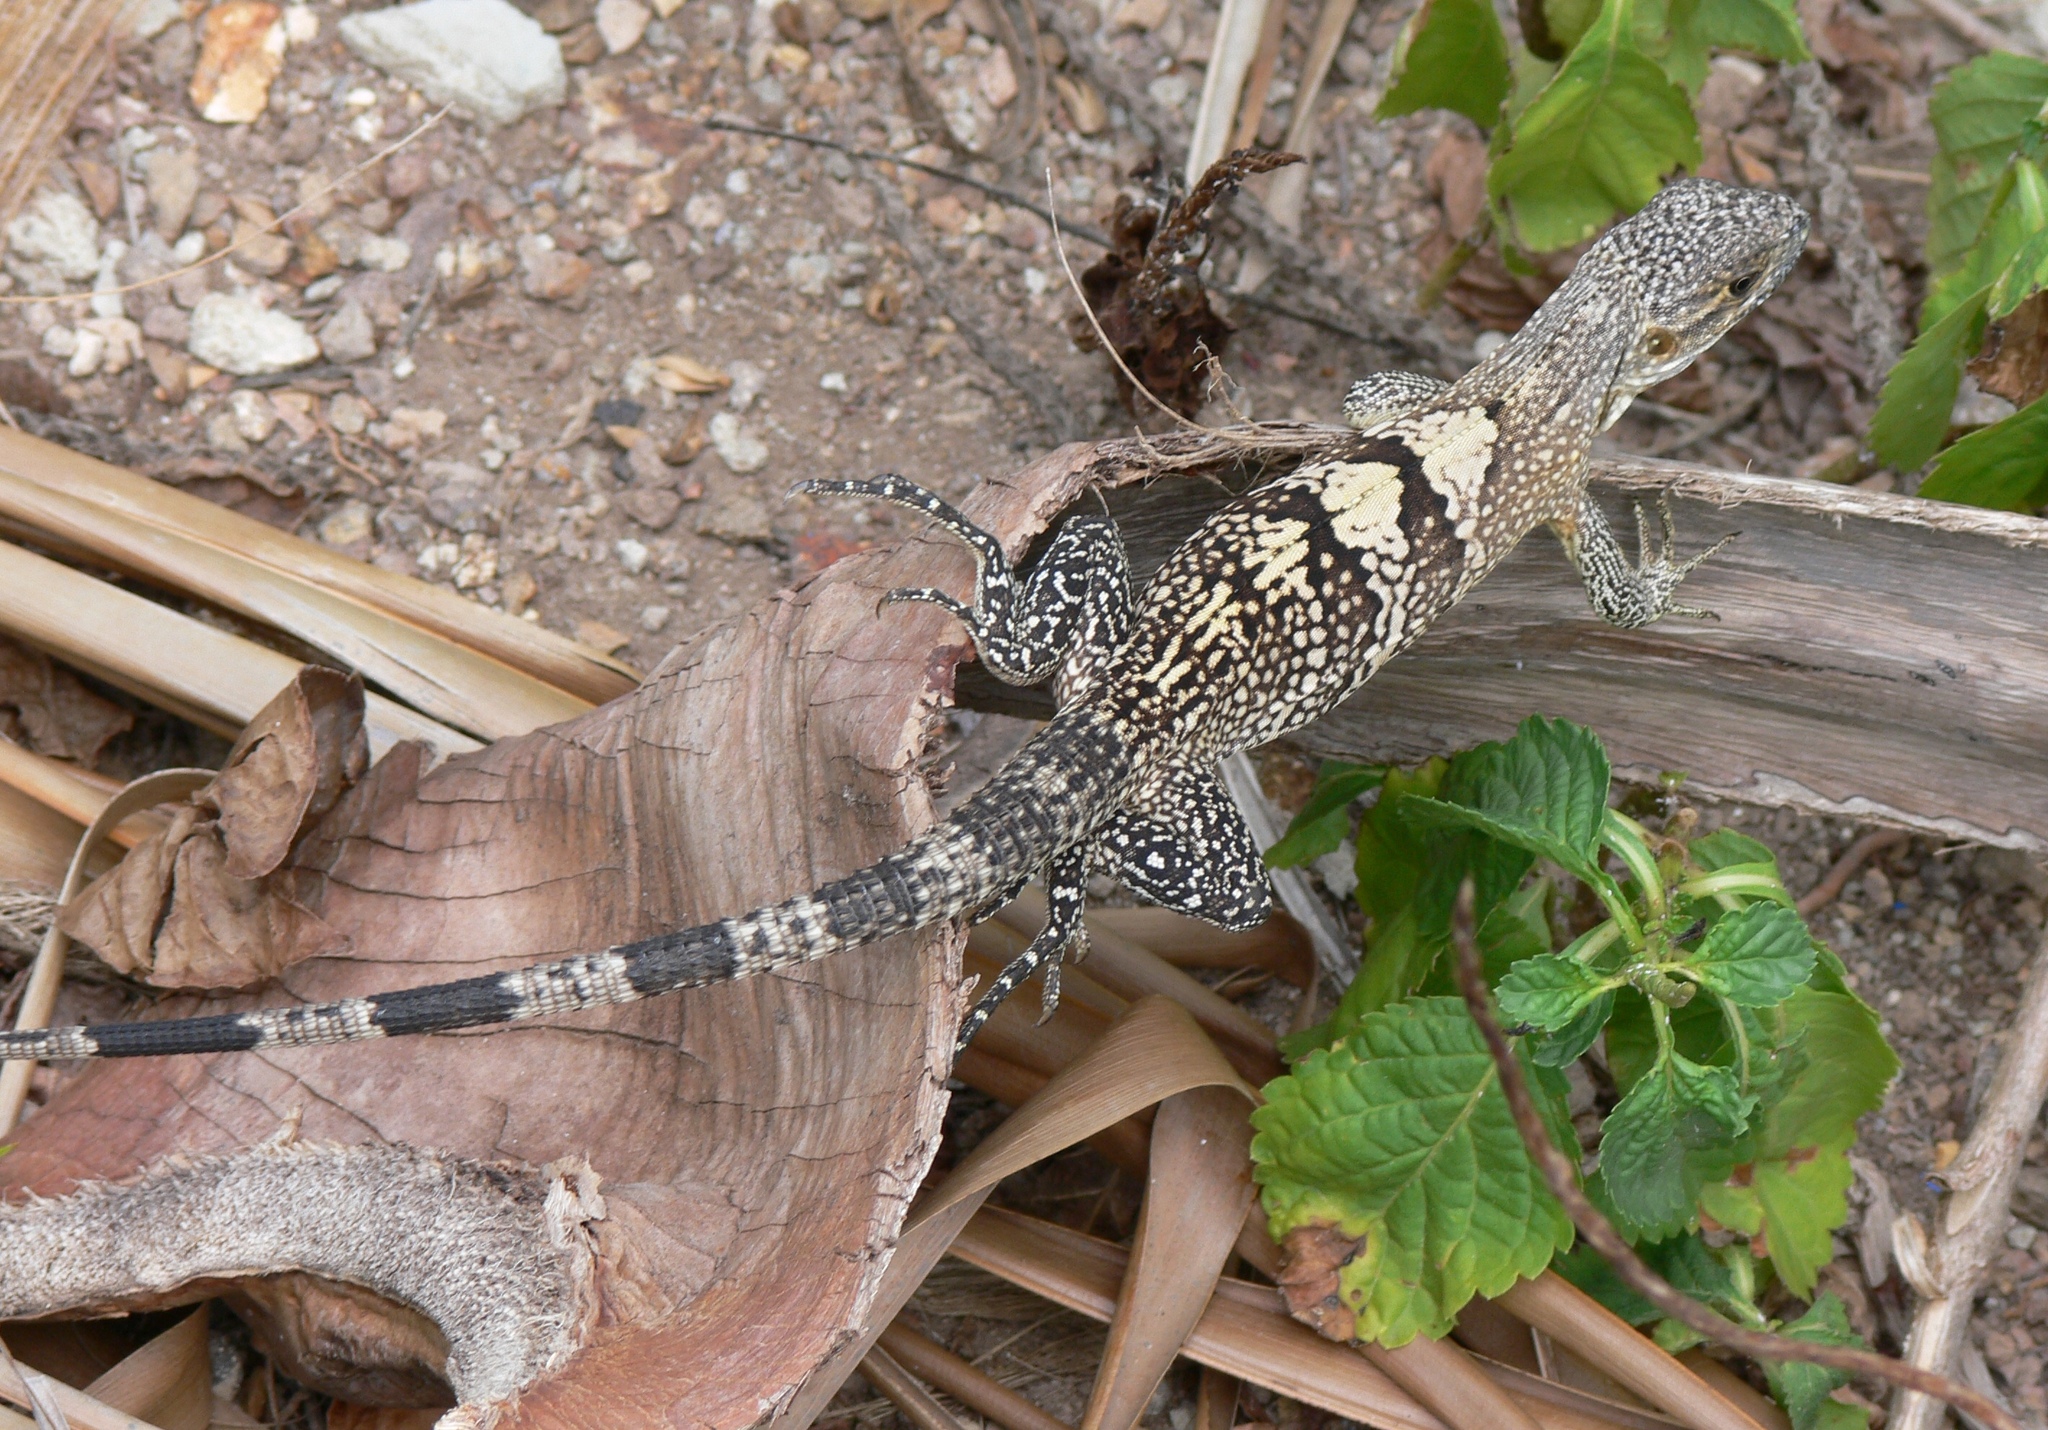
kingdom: Animalia
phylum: Chordata
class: Squamata
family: Iguanidae
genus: Ctenosaura
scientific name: Ctenosaura similis
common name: Black spiny-tailed iguana
